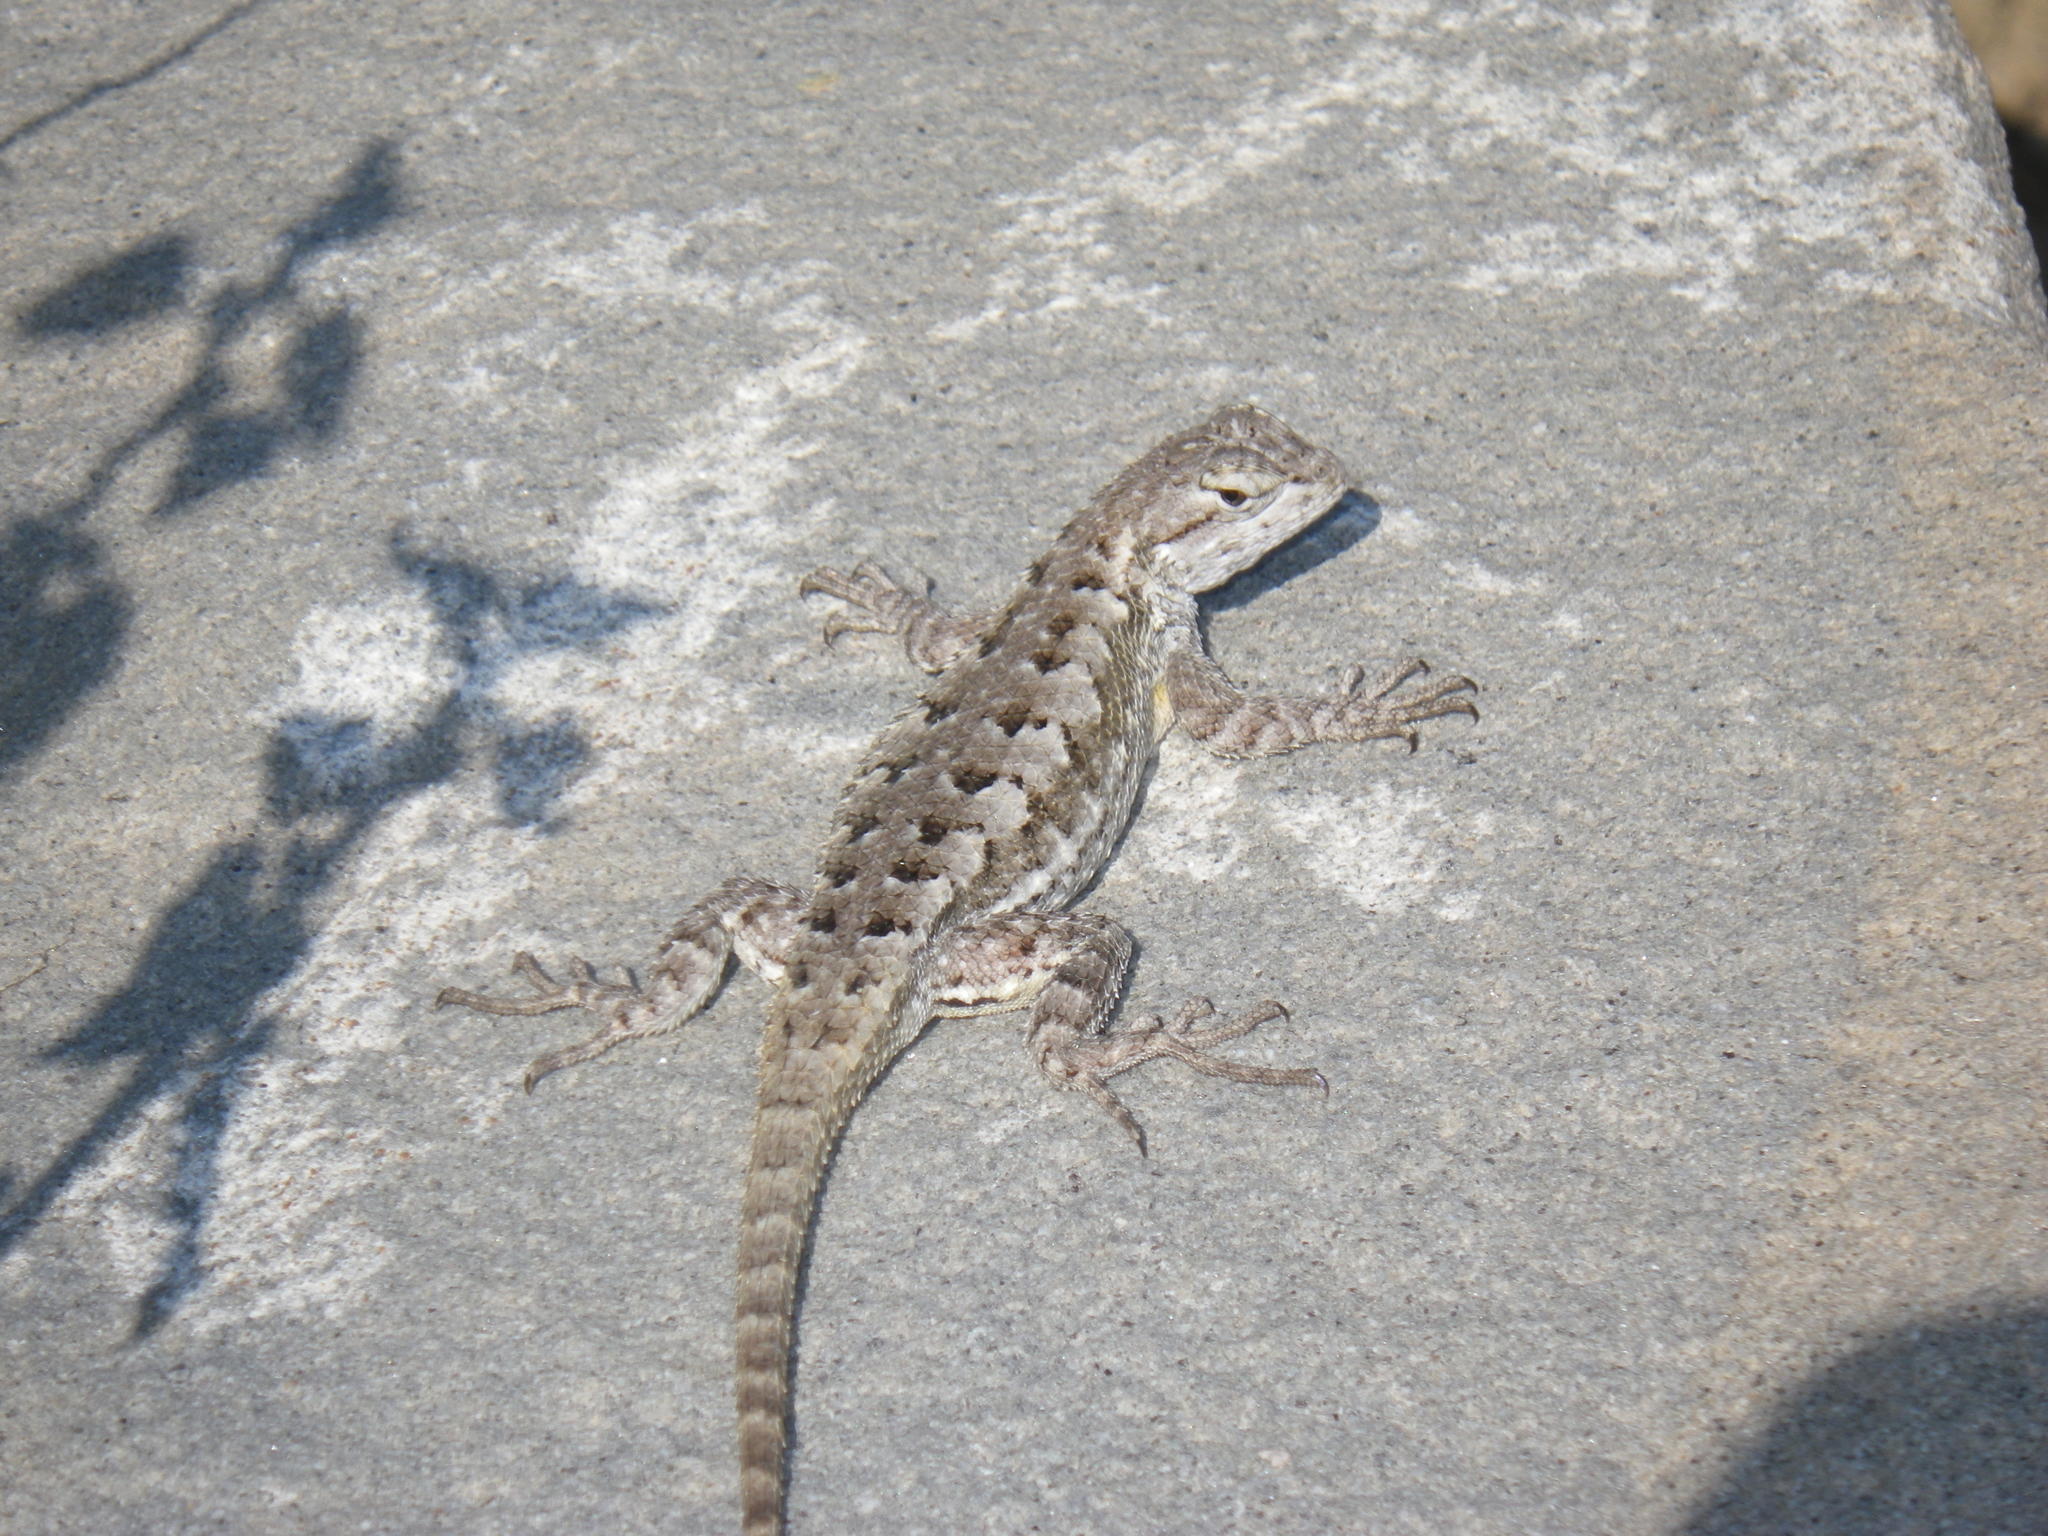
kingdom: Animalia
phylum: Chordata
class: Squamata
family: Phrynosomatidae
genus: Sceloporus
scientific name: Sceloporus occidentalis
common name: Western fence lizard
